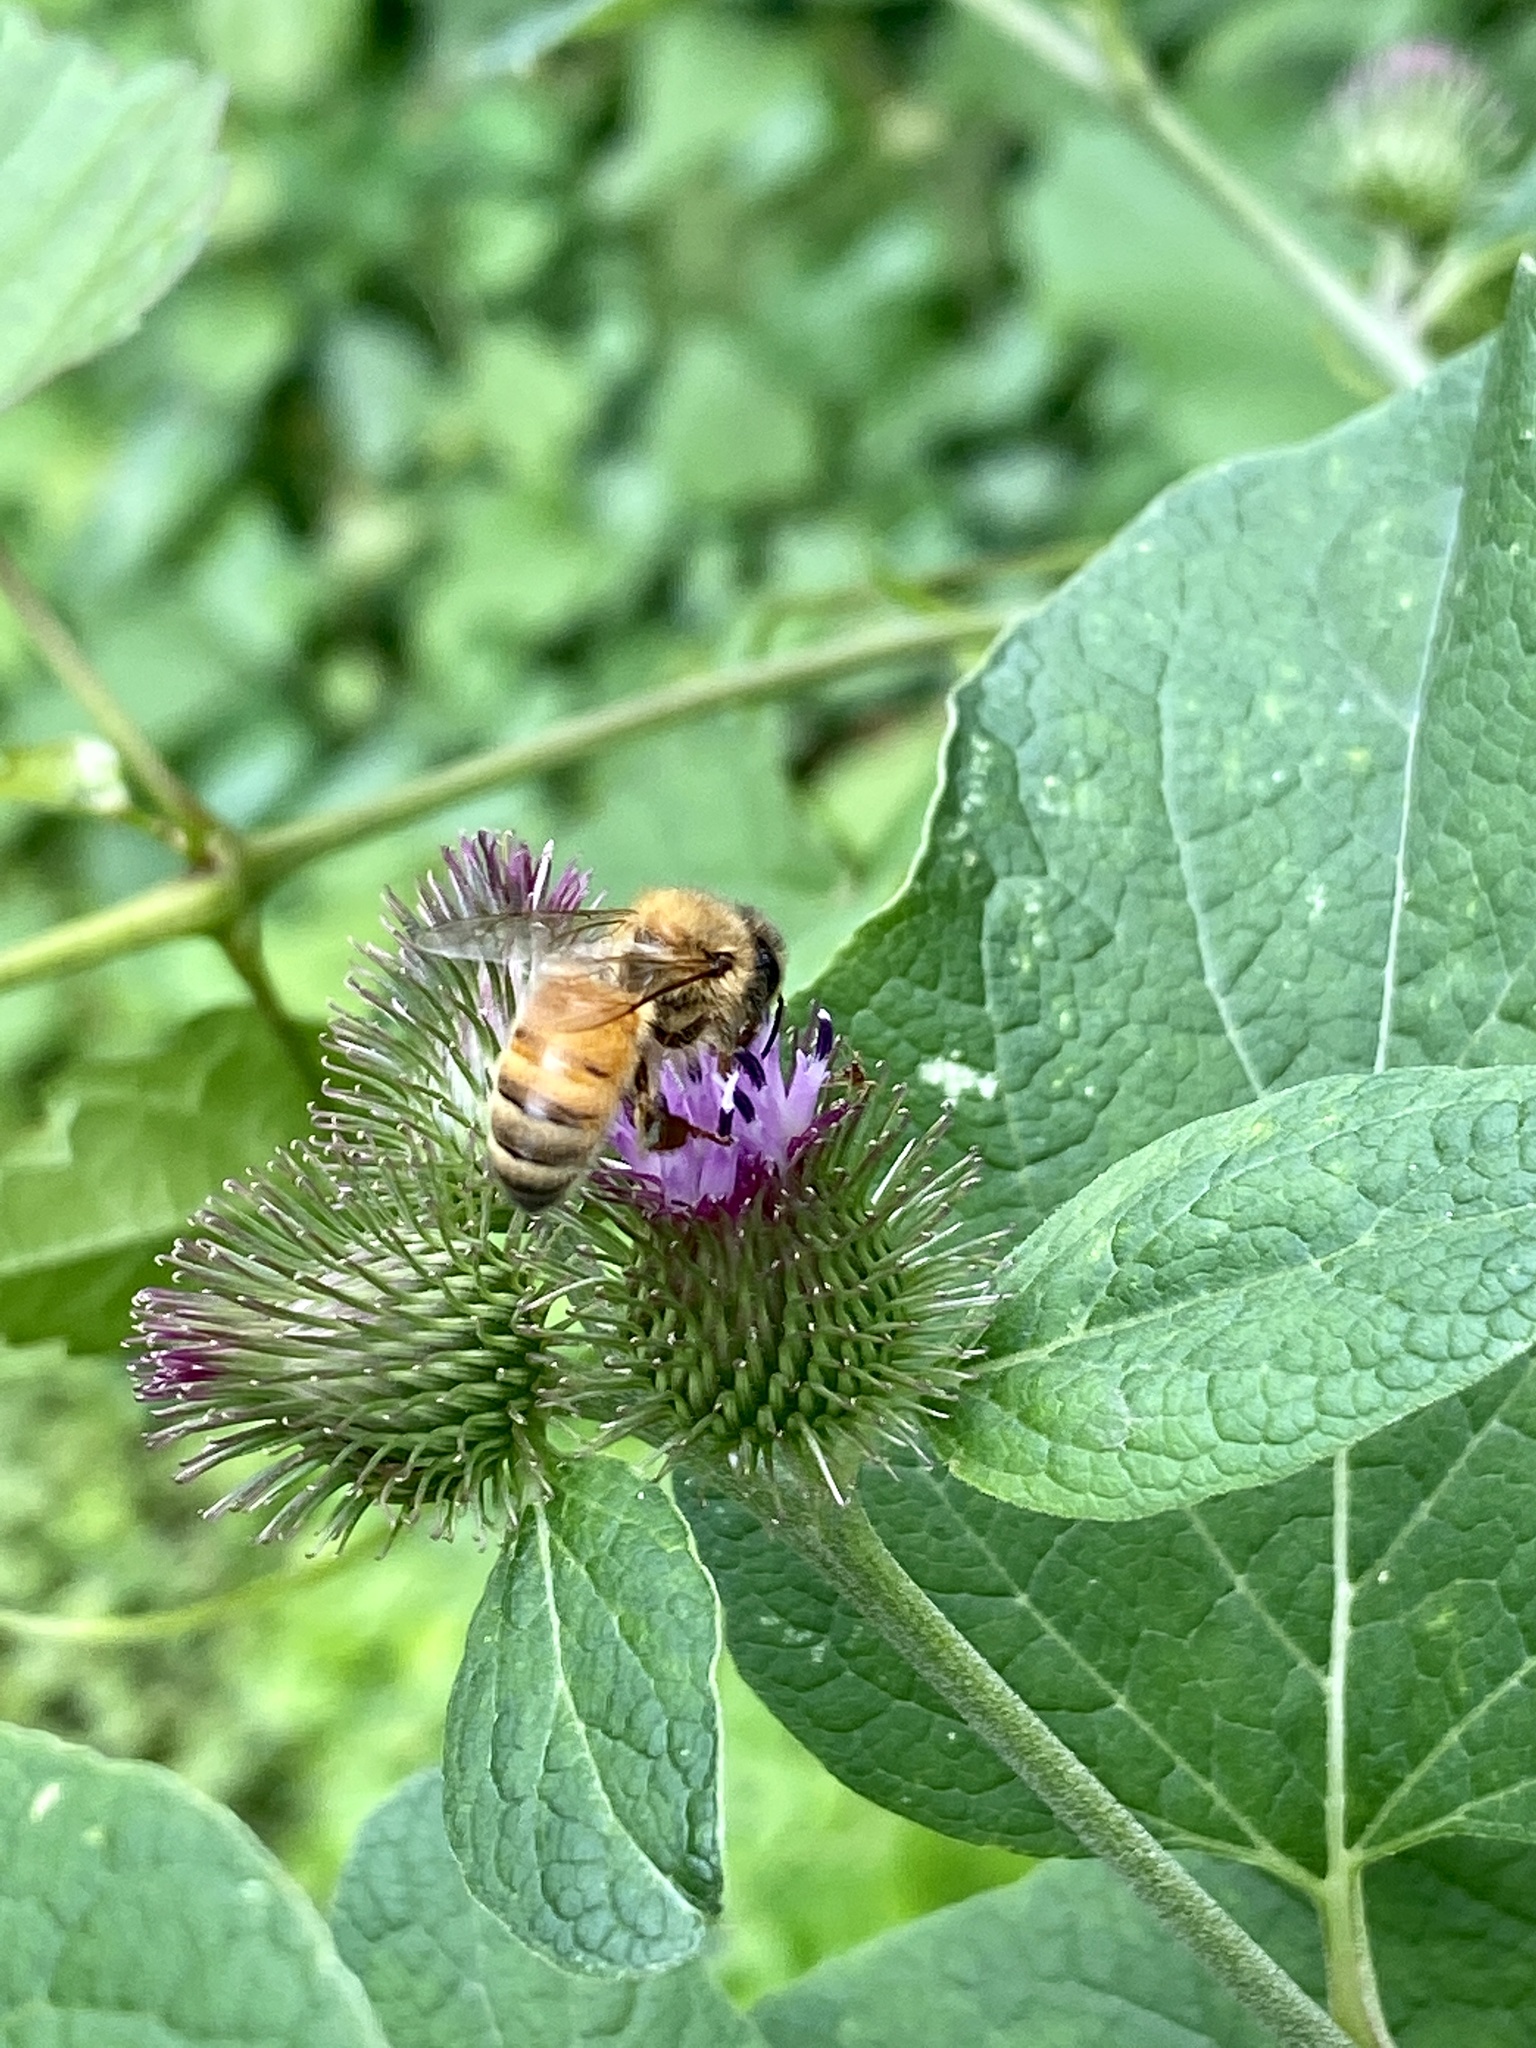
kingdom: Animalia
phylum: Arthropoda
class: Insecta
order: Hymenoptera
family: Apidae
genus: Apis
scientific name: Apis mellifera
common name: Honey bee
